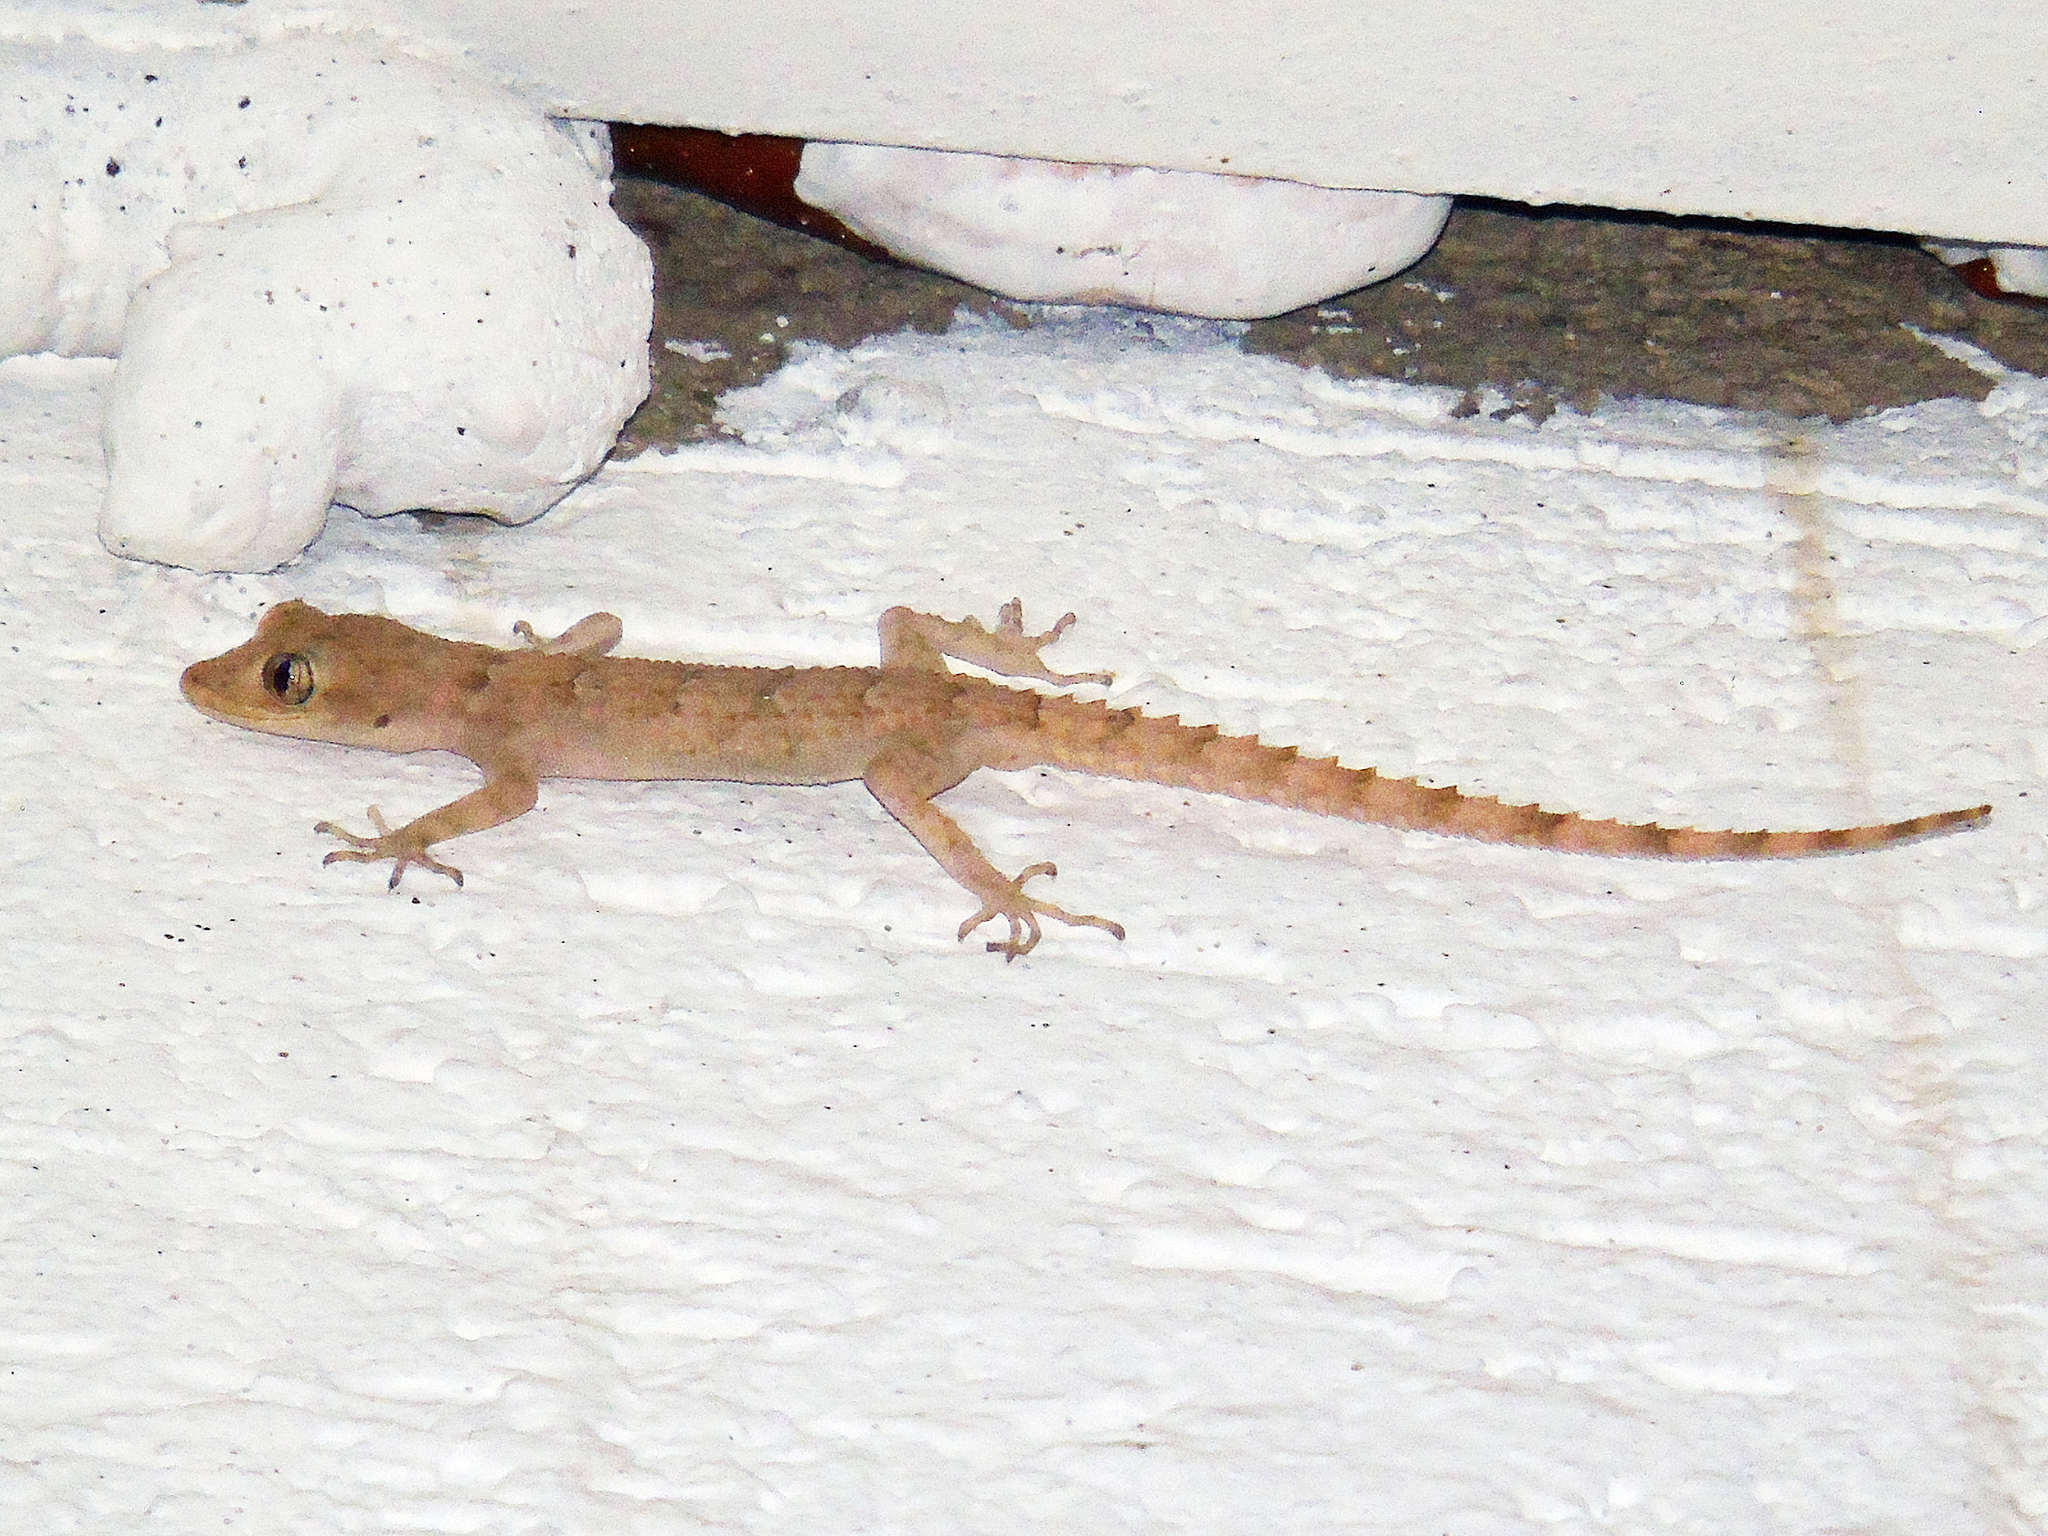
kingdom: Animalia
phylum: Chordata
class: Squamata
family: Gekkonidae
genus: Mediodactylus
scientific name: Mediodactylus heterocercus
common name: Asia minor thin-toed gecko
